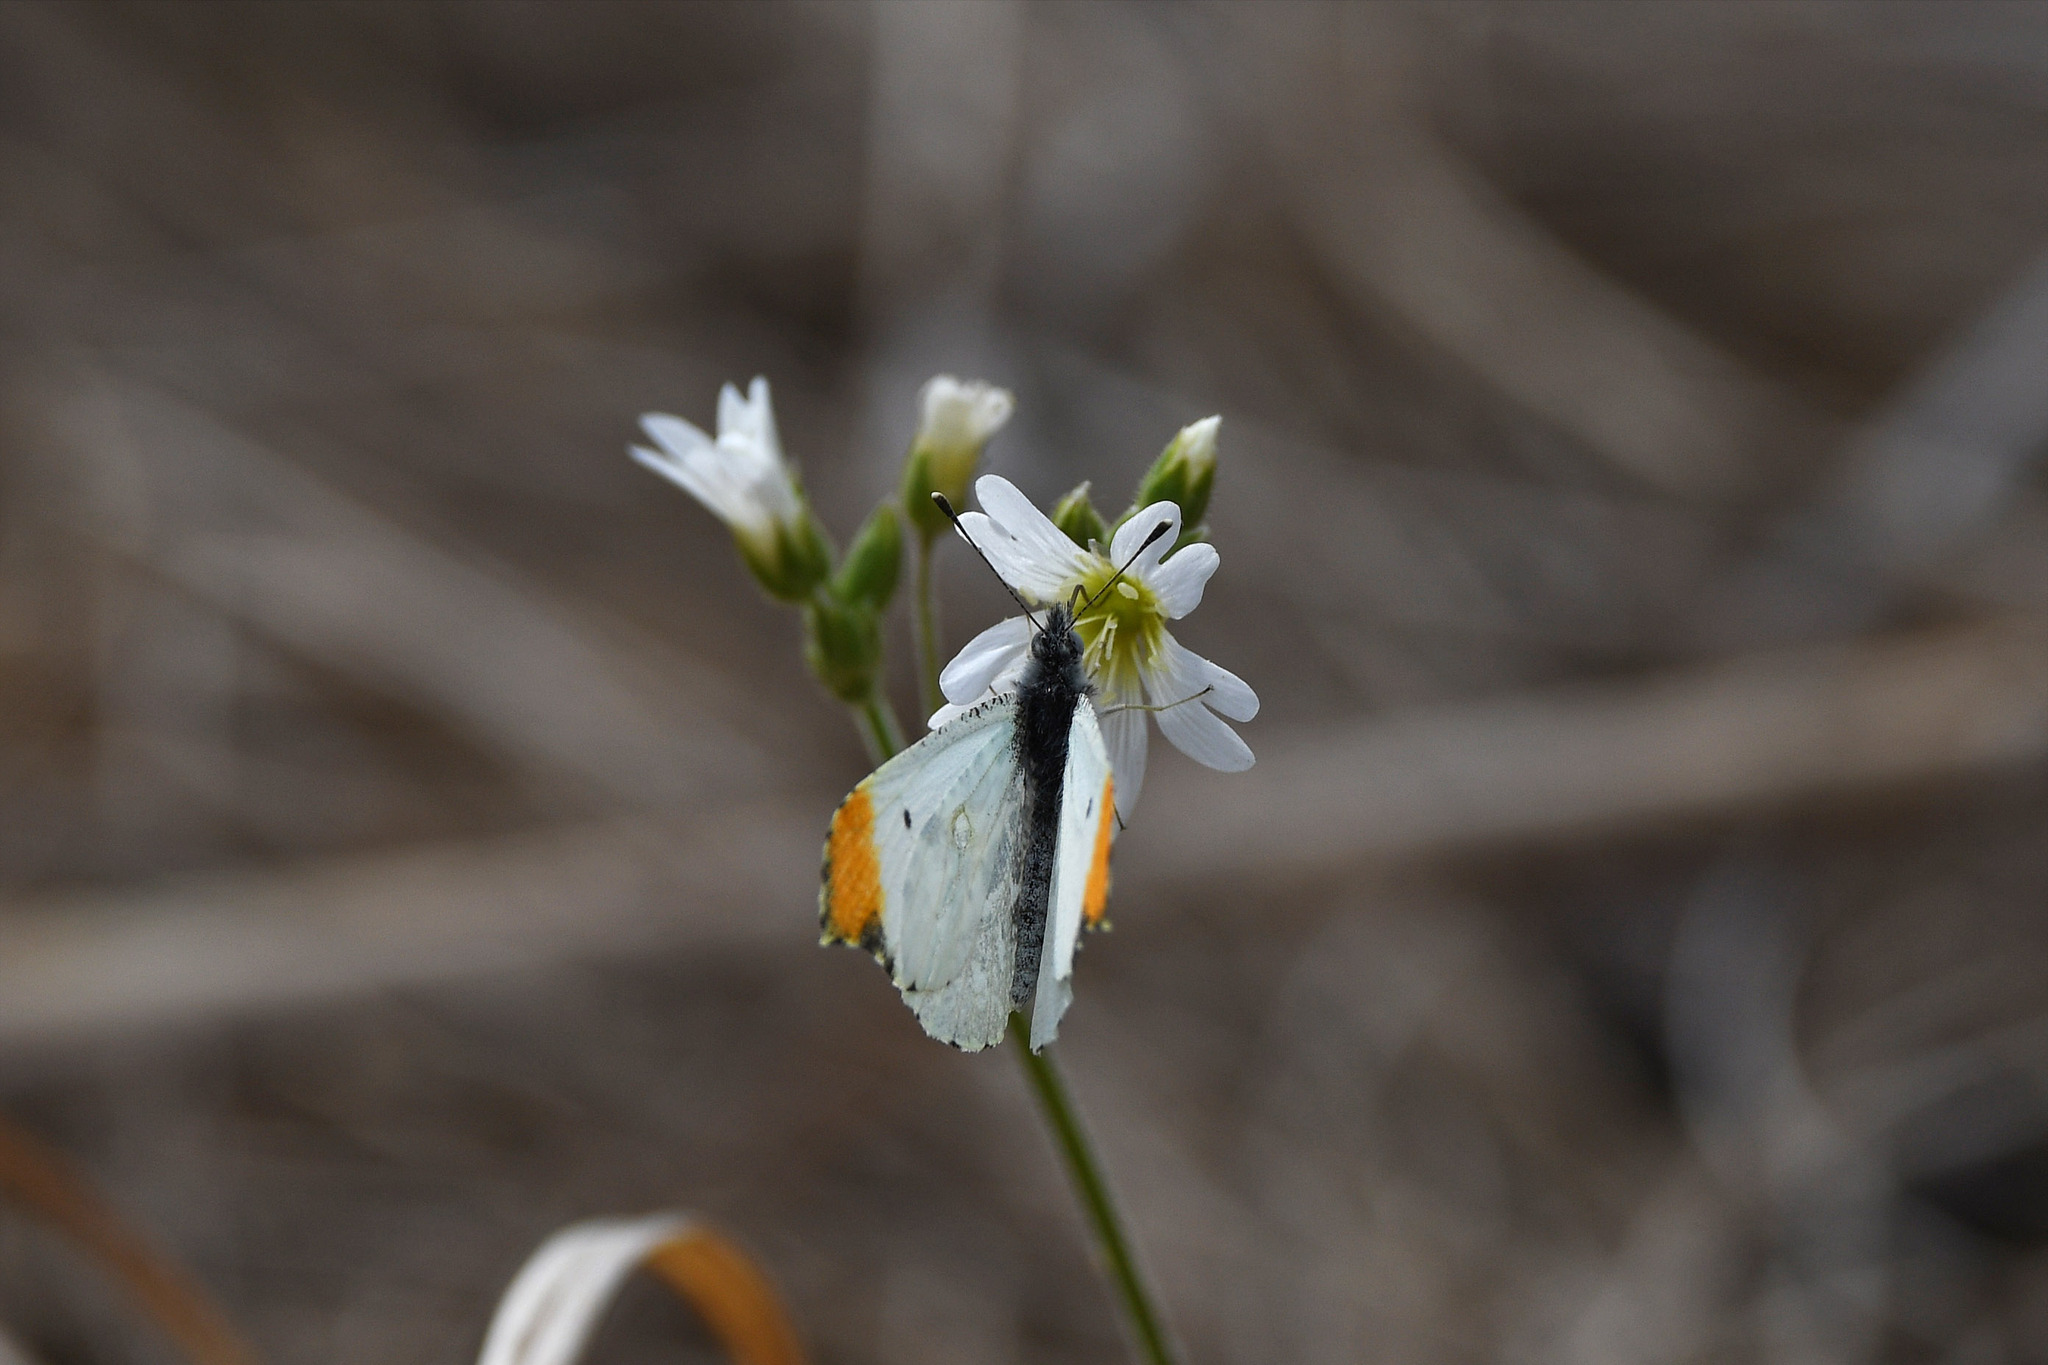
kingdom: Animalia
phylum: Arthropoda
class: Insecta
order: Lepidoptera
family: Pieridae
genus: Anthocharis
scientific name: Anthocharis midea
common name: Falcate orangetip
